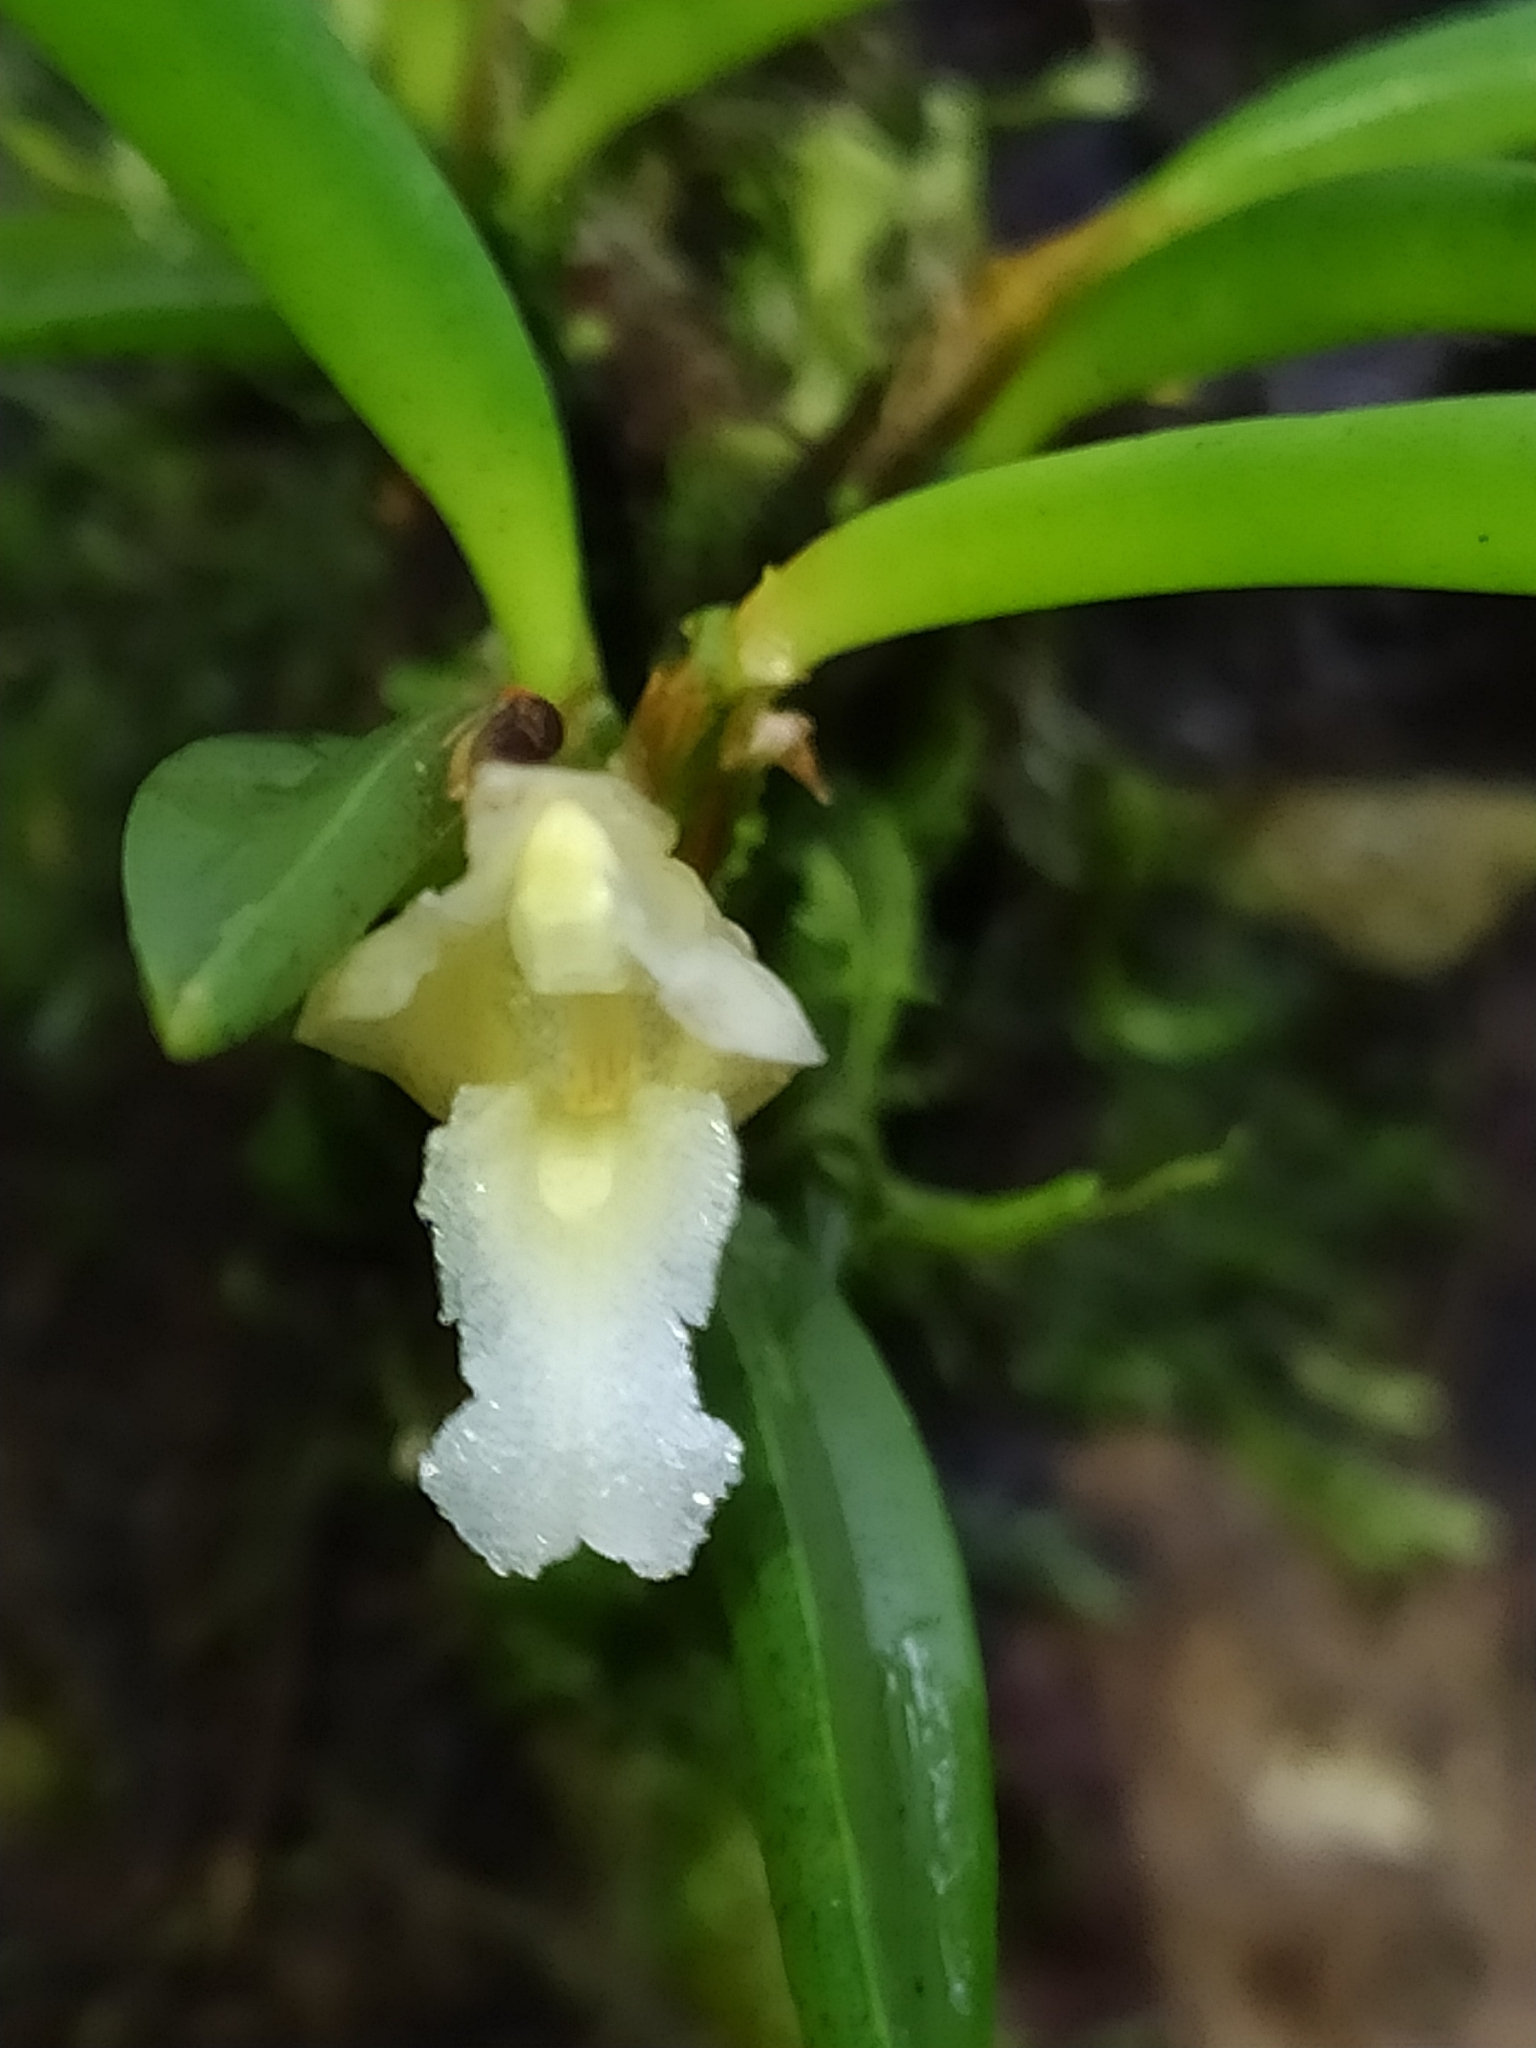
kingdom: Plantae
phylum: Tracheophyta
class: Liliopsida
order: Asparagales
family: Orchidaceae
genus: Maxillaria
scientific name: Maxillaria uncata
